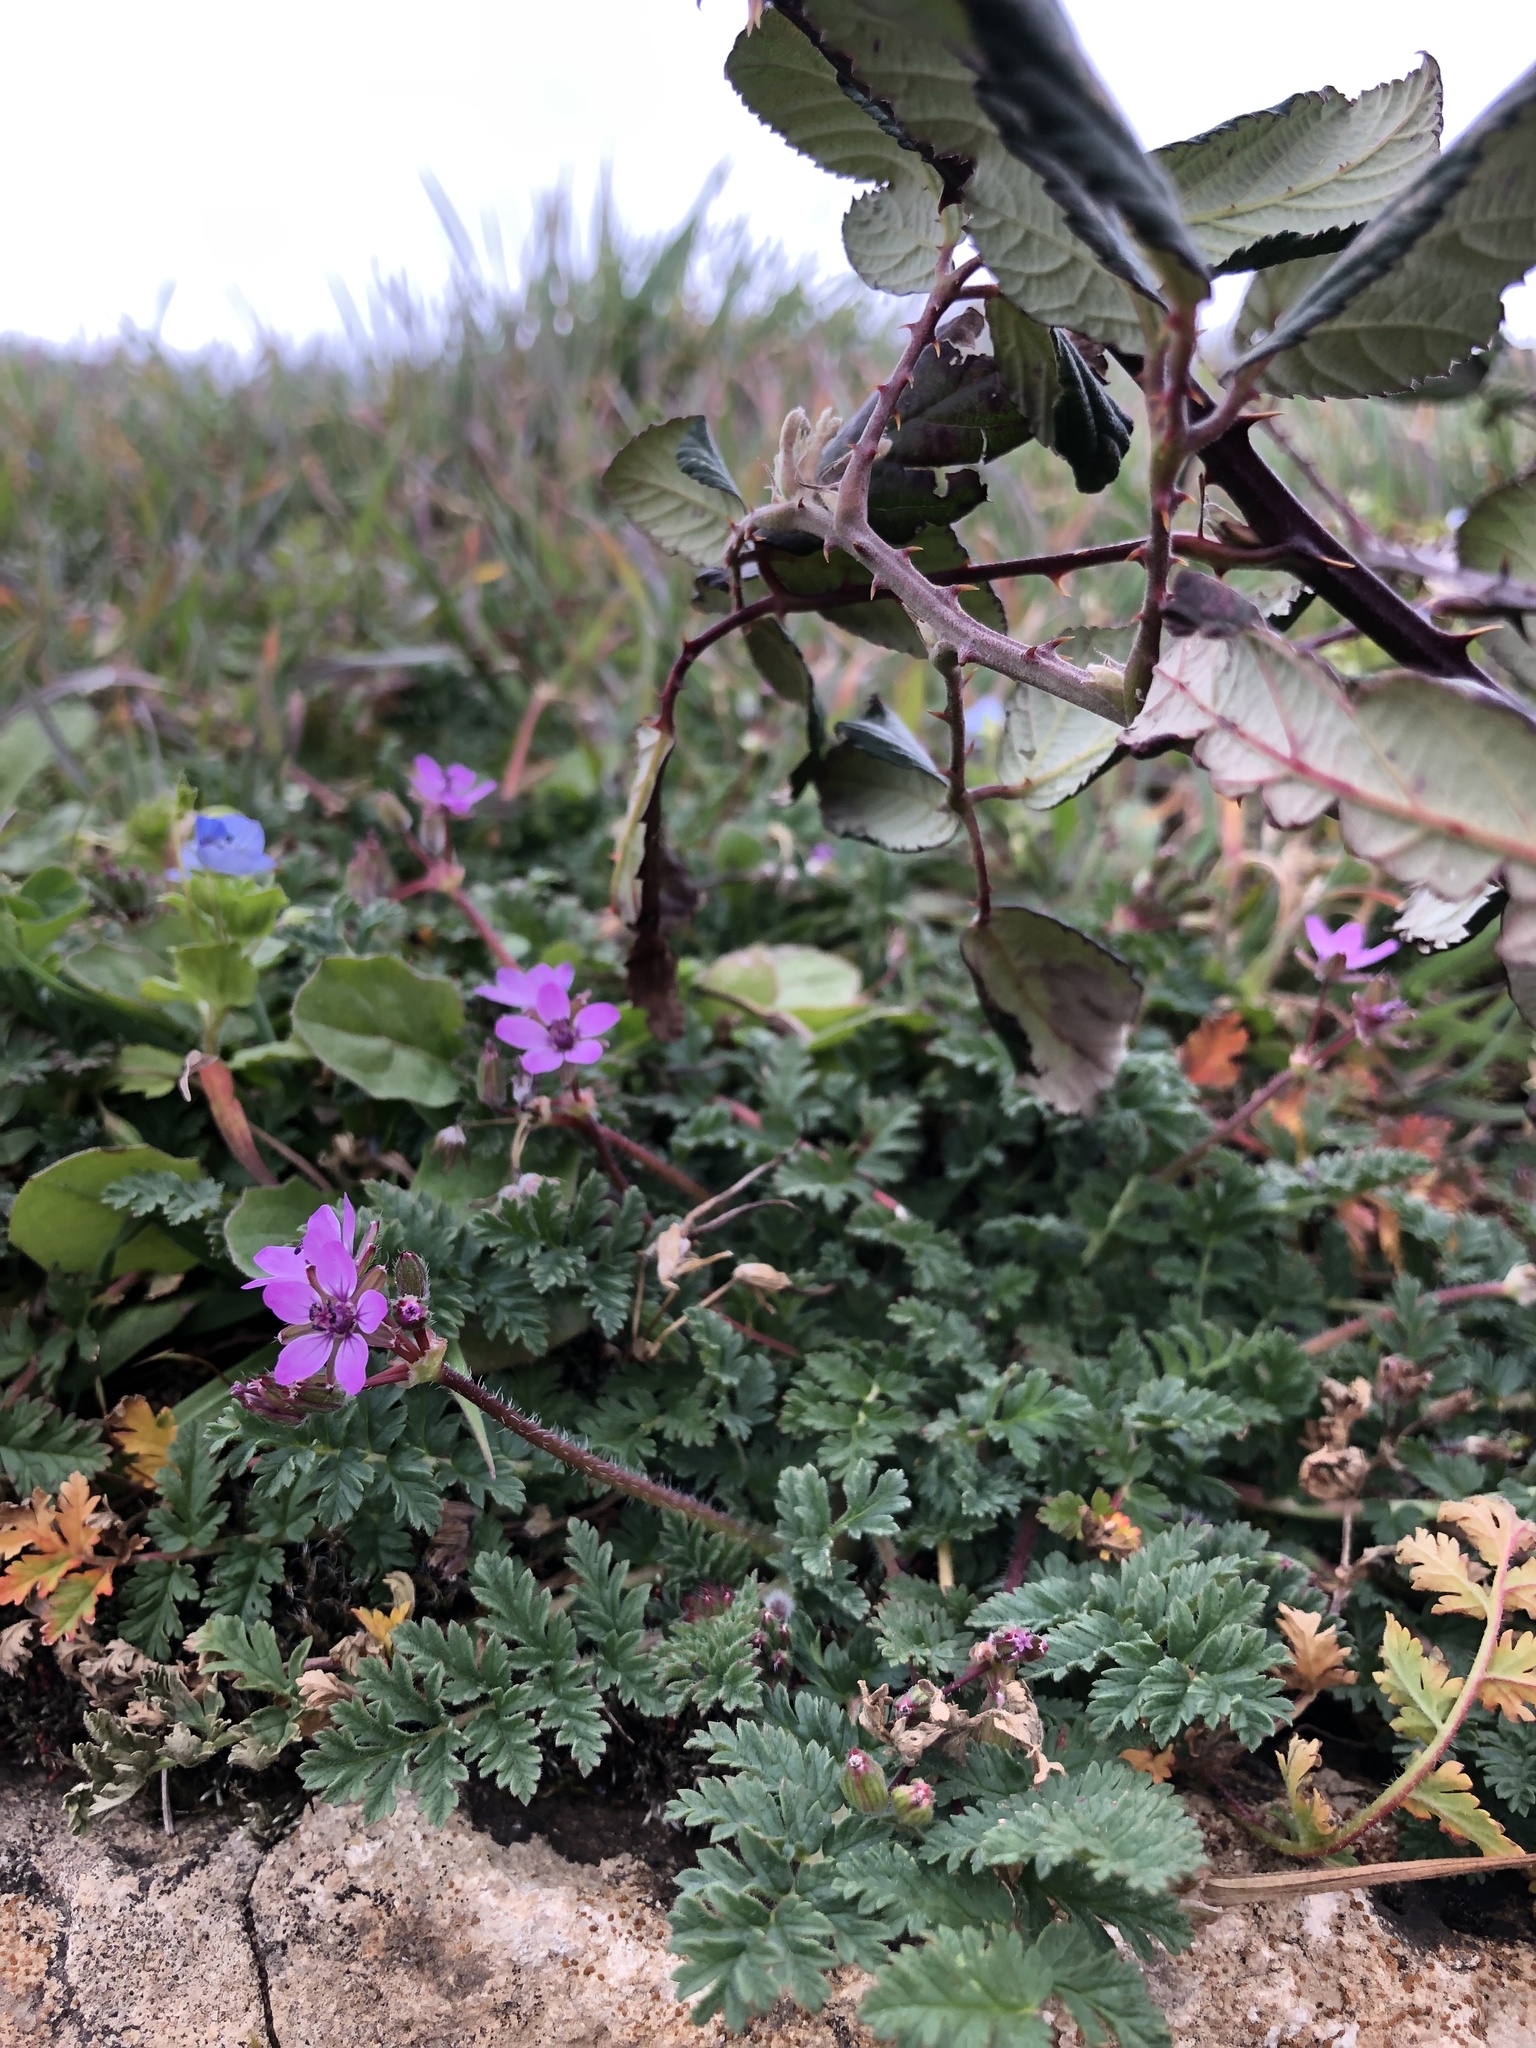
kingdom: Plantae
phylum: Tracheophyta
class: Magnoliopsida
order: Geraniales
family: Geraniaceae
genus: Erodium
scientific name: Erodium cicutarium
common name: Common stork's-bill
